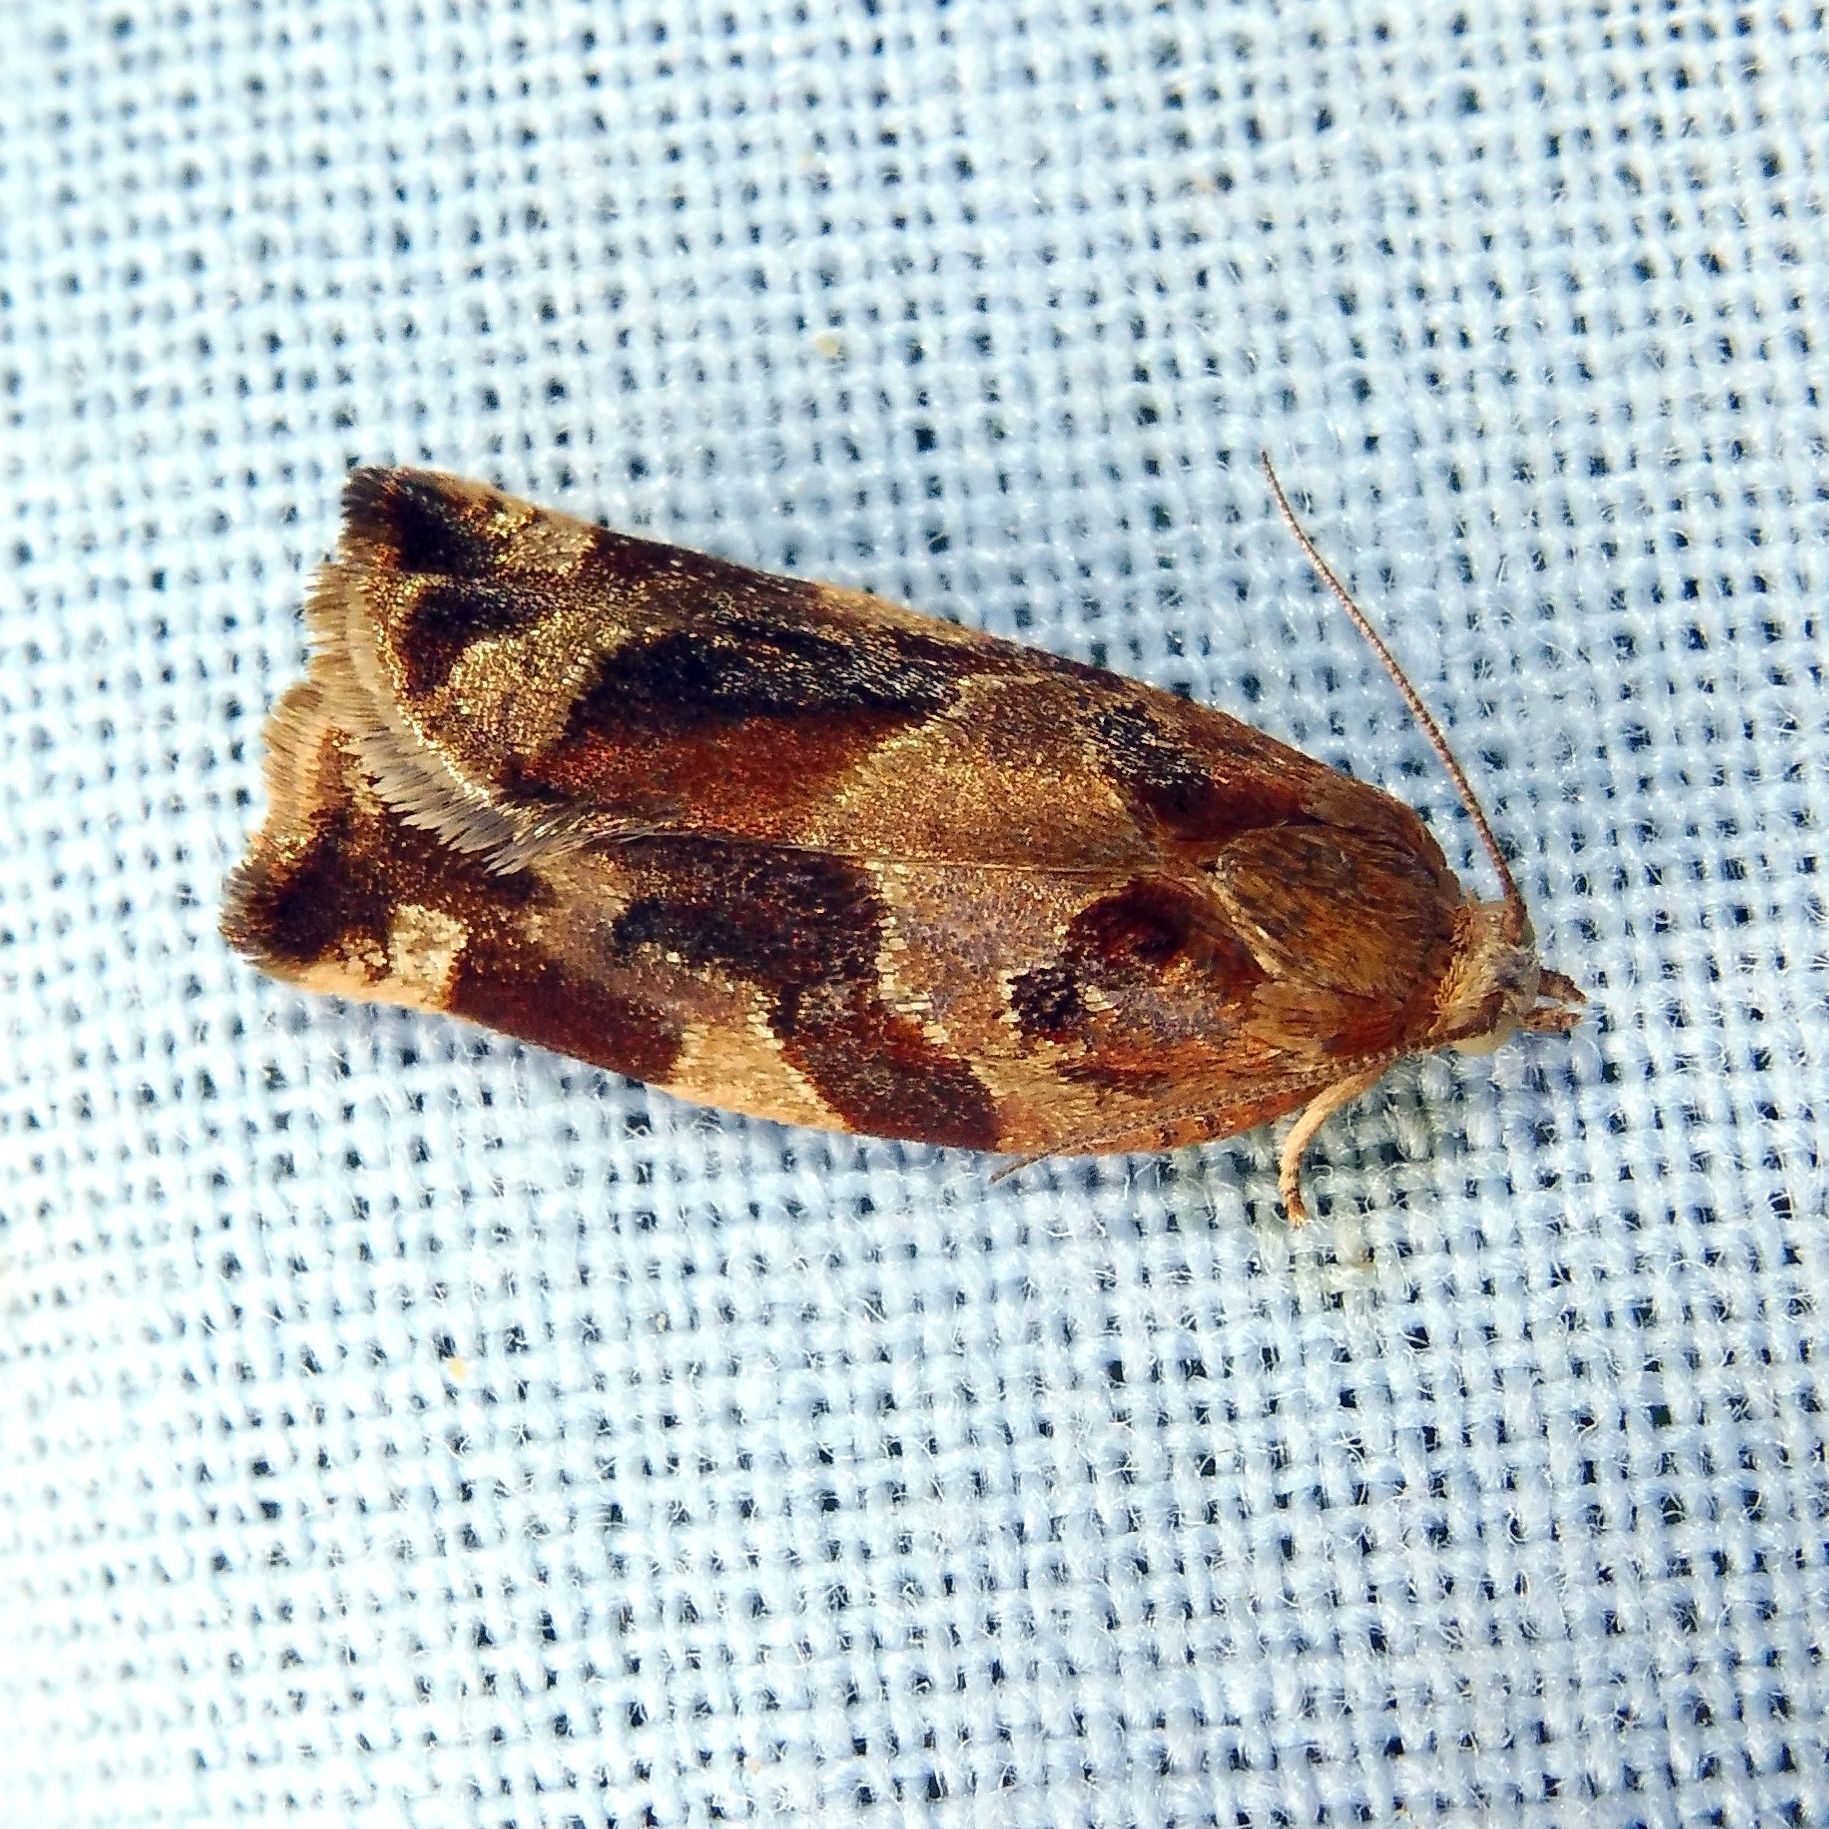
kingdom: Animalia
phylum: Arthropoda
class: Insecta
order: Lepidoptera
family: Tortricidae
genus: Archips
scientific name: Archips xylosteana
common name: Variegated golden tortrix
